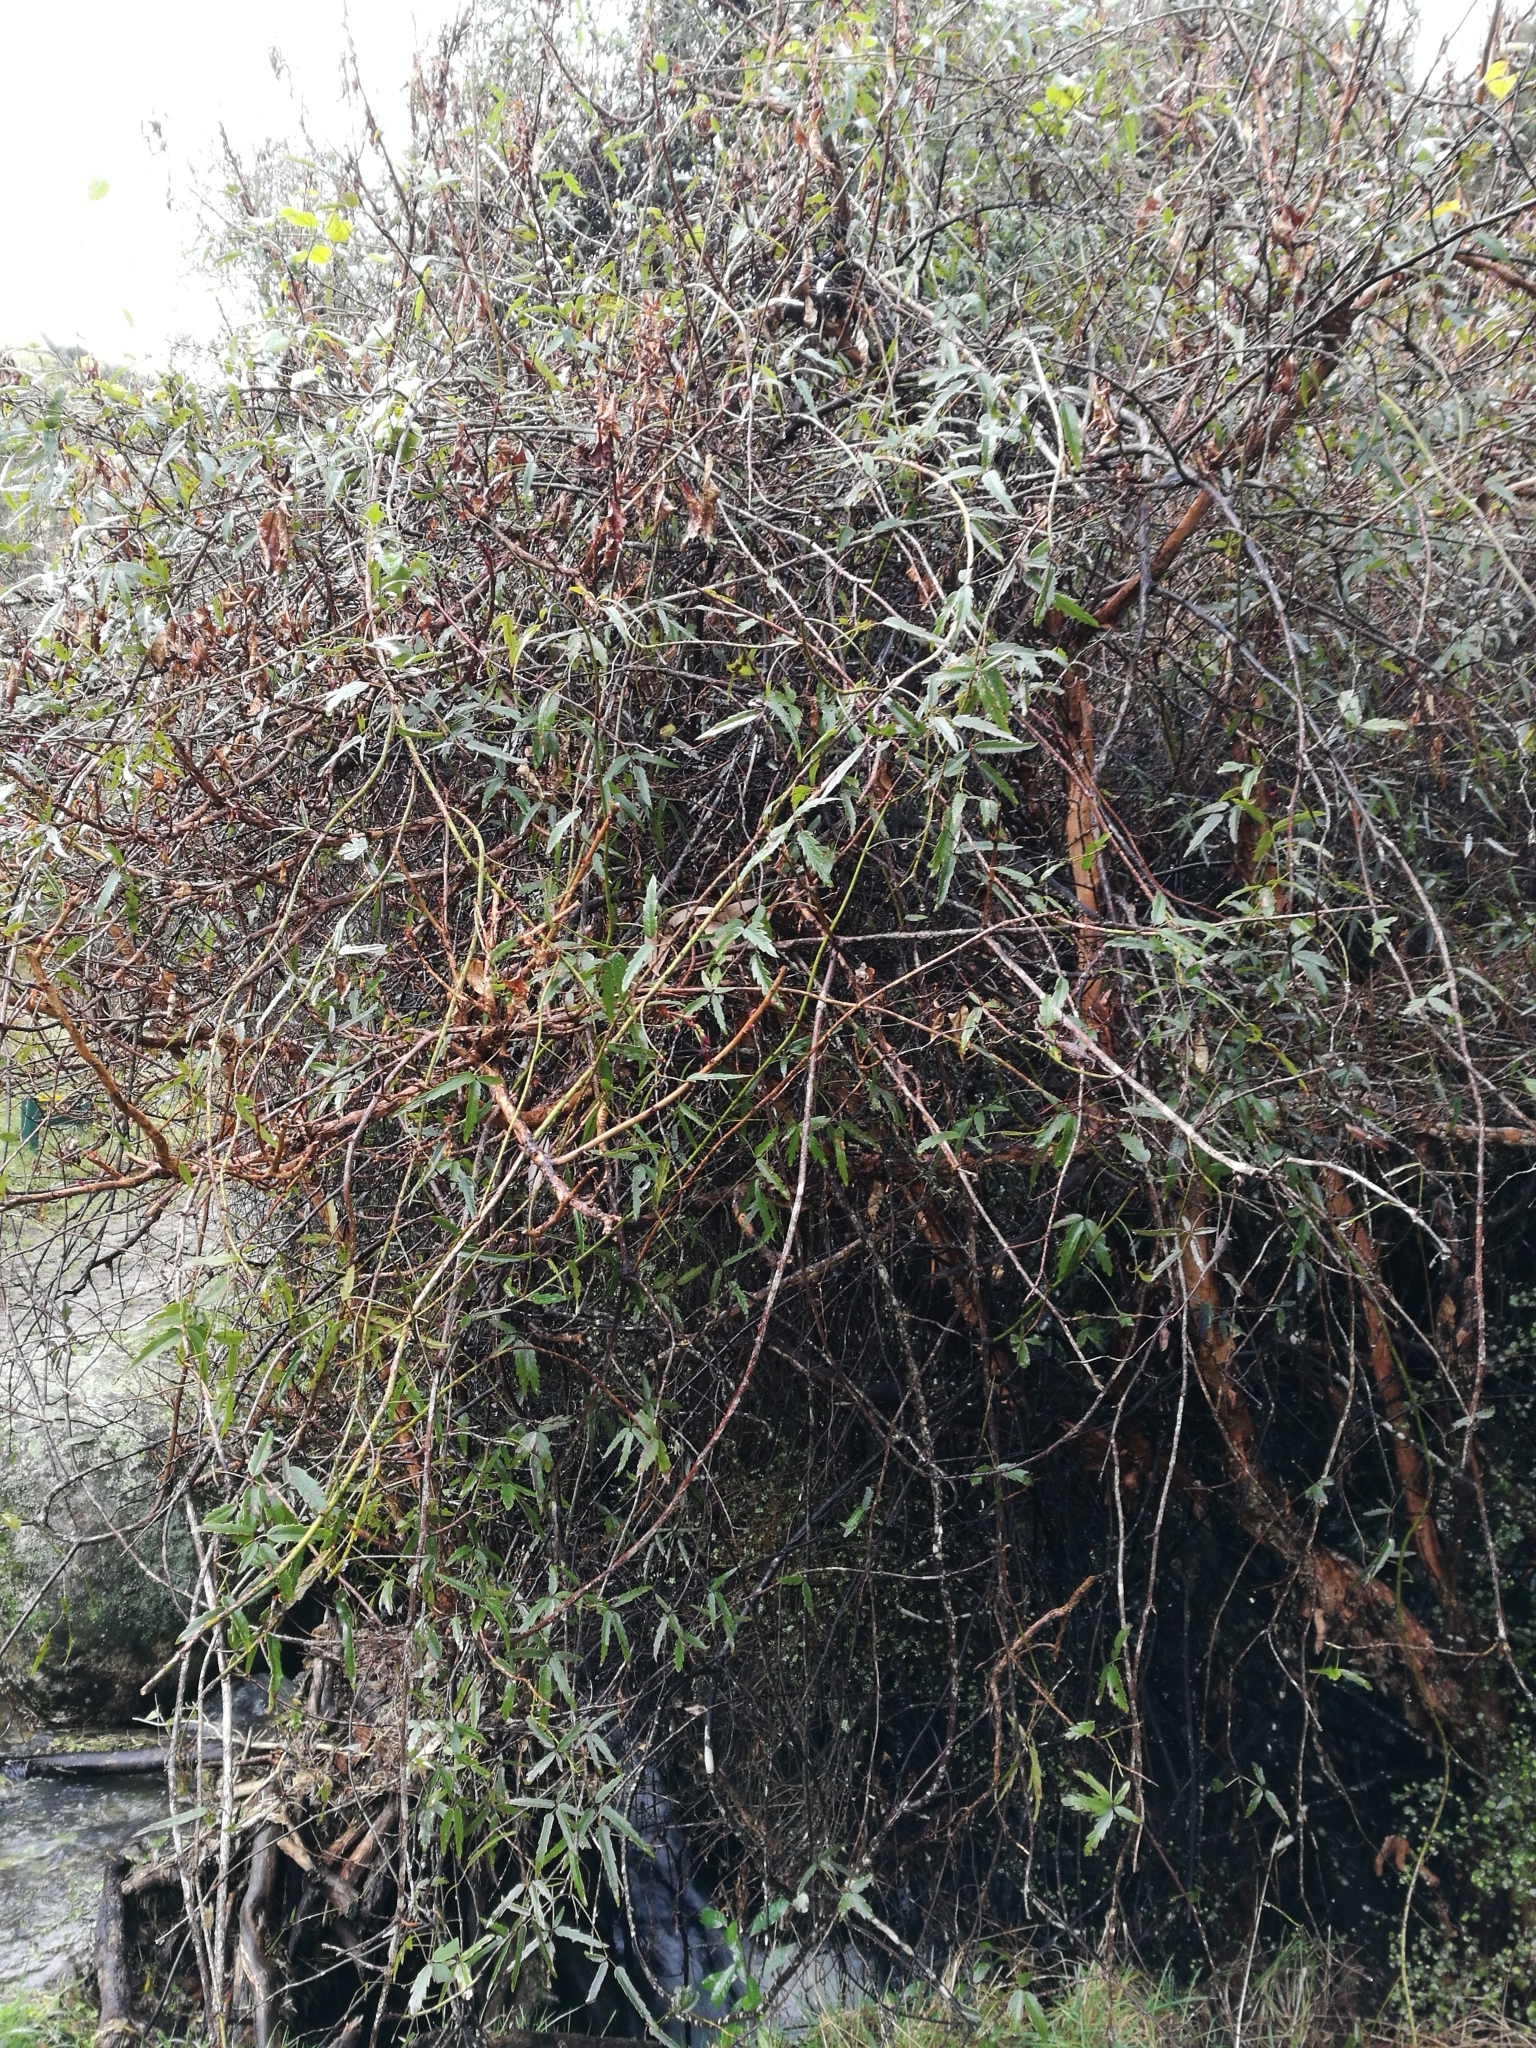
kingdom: Plantae
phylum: Tracheophyta
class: Magnoliopsida
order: Rosales
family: Rosaceae
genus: Rubus
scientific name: Rubus schmidelioides
